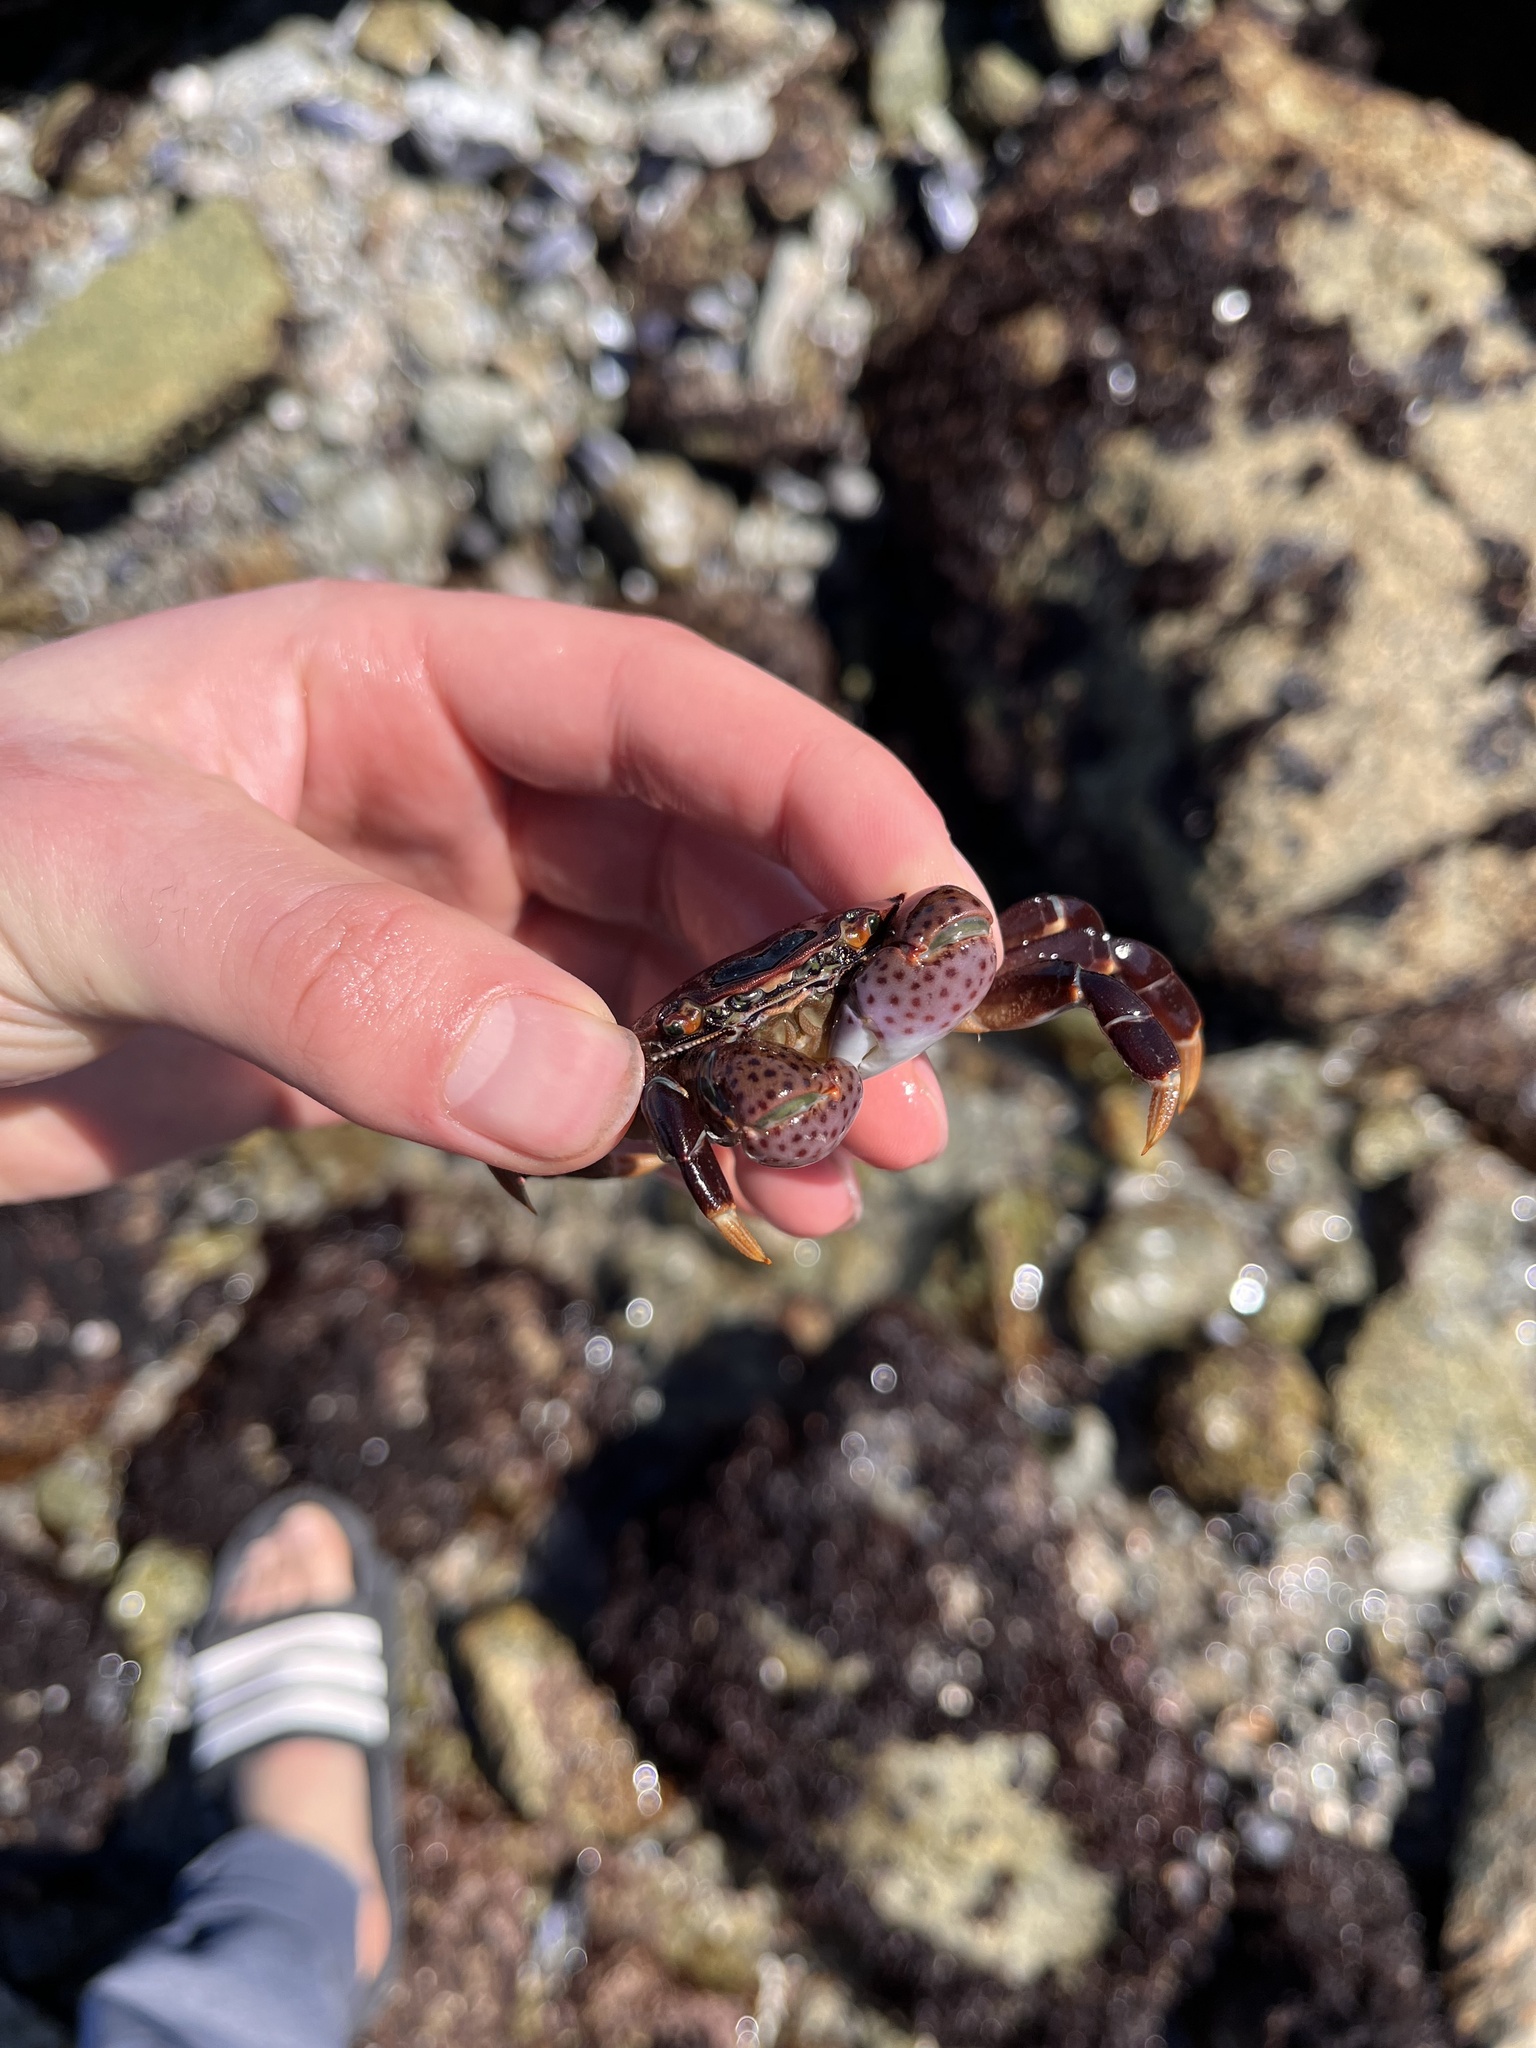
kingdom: Animalia
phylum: Arthropoda
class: Malacostraca
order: Decapoda
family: Varunidae
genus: Hemigrapsus
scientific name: Hemigrapsus nudus
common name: Purple shore crab
